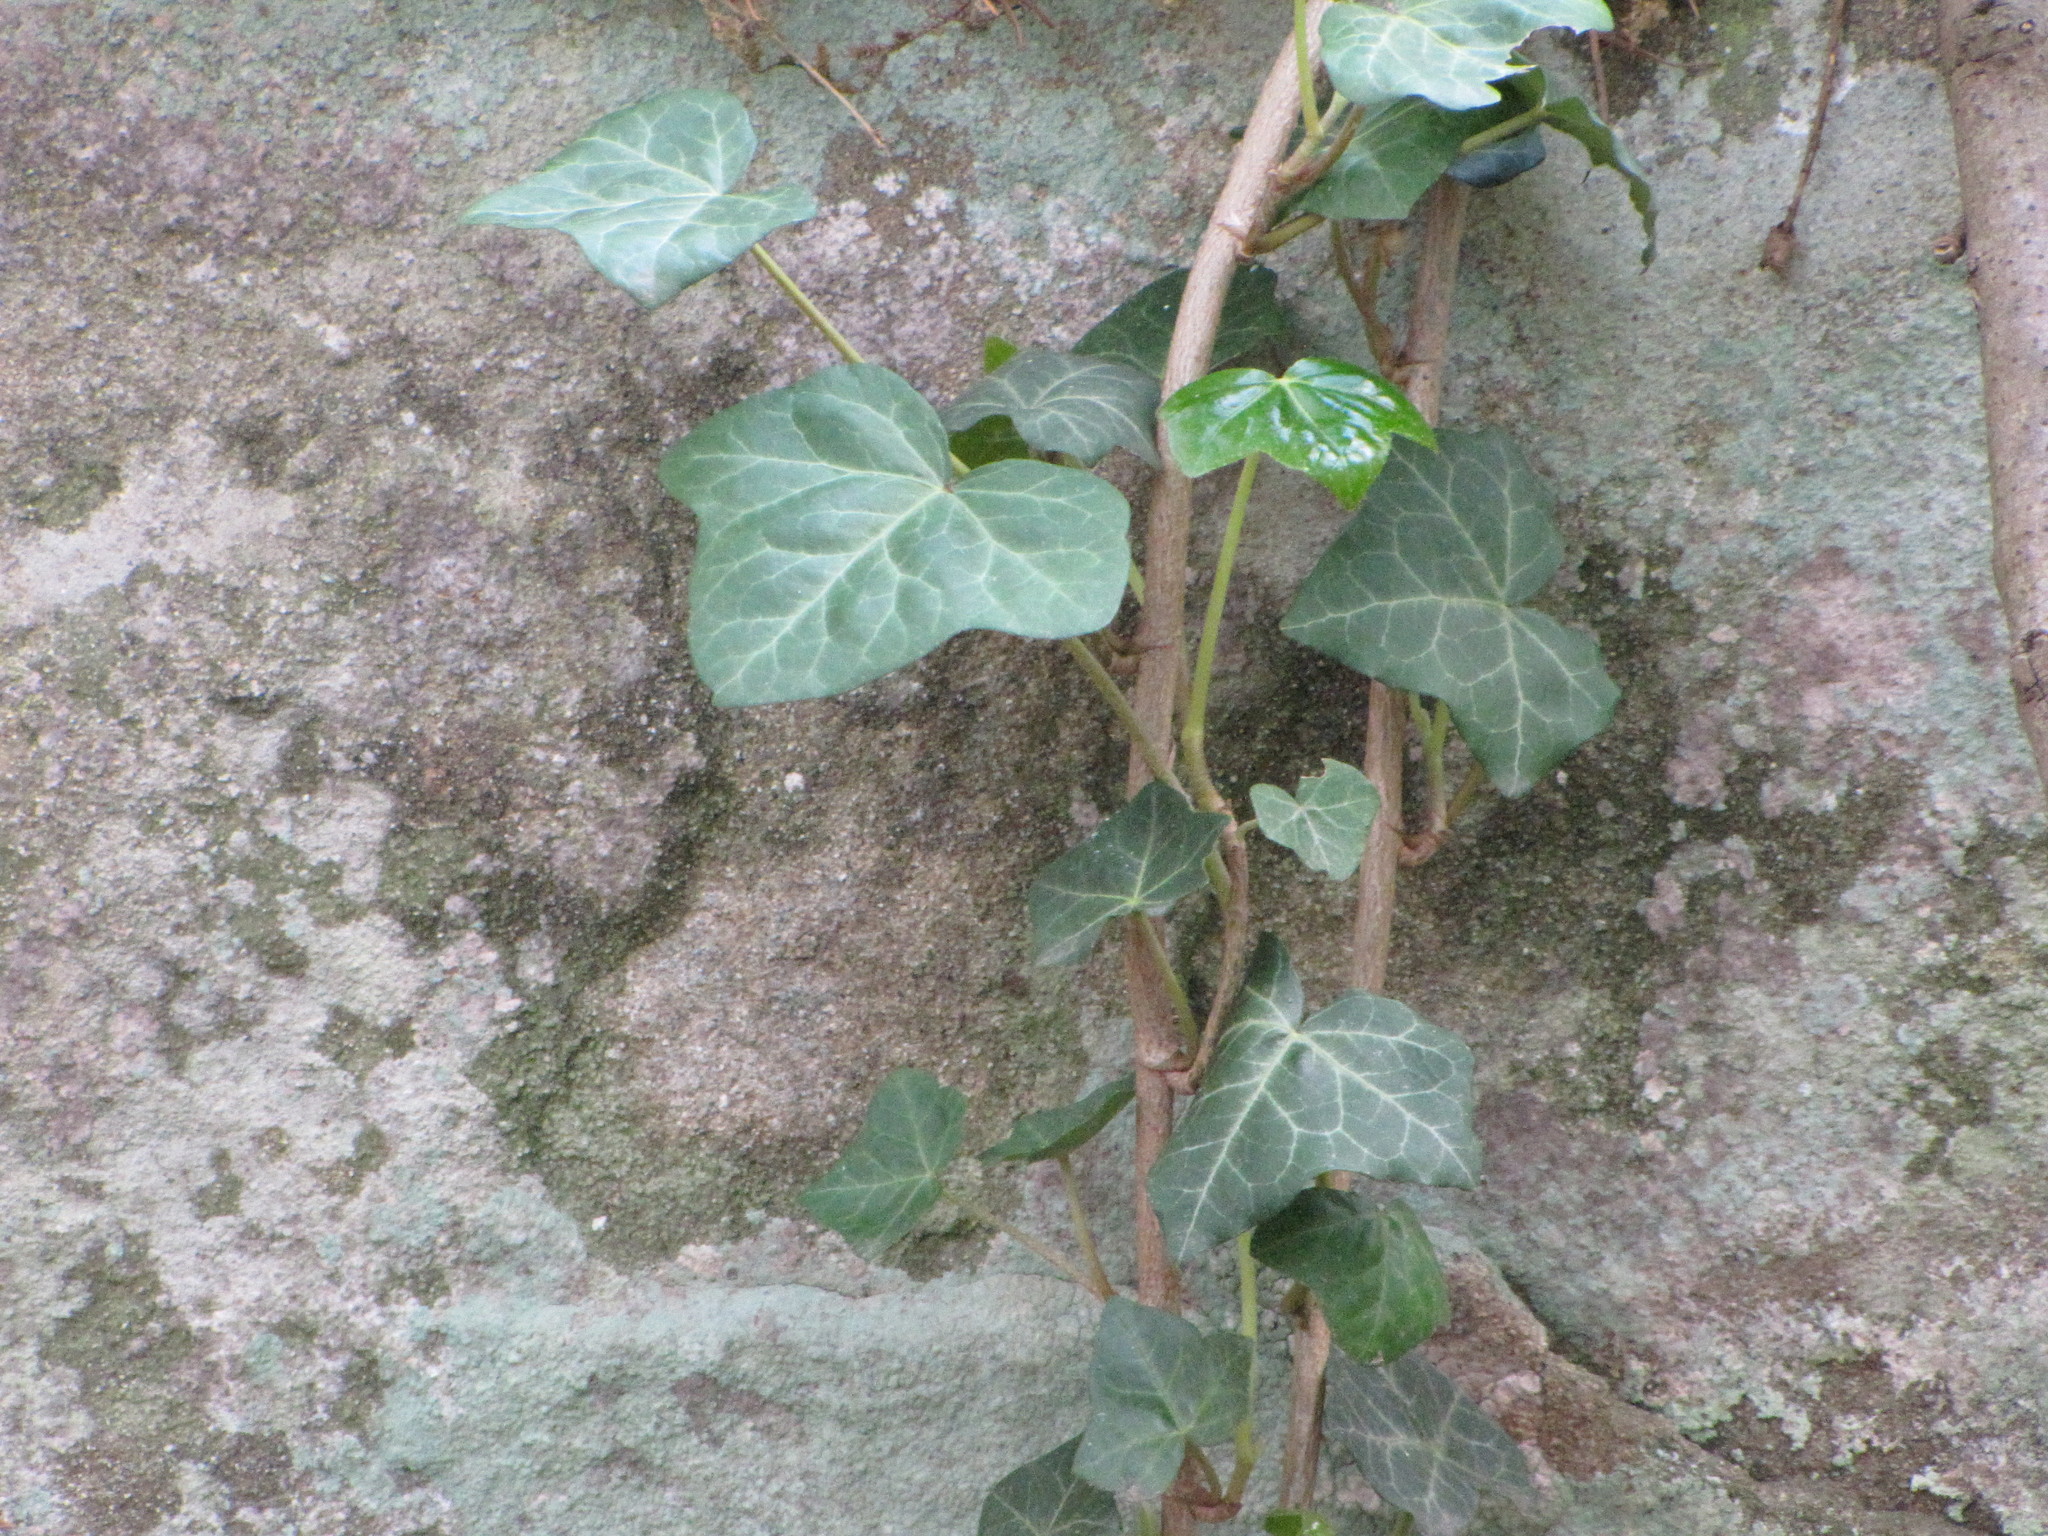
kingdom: Plantae
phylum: Tracheophyta
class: Magnoliopsida
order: Apiales
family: Araliaceae
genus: Hedera
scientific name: Hedera helix
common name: Ivy
